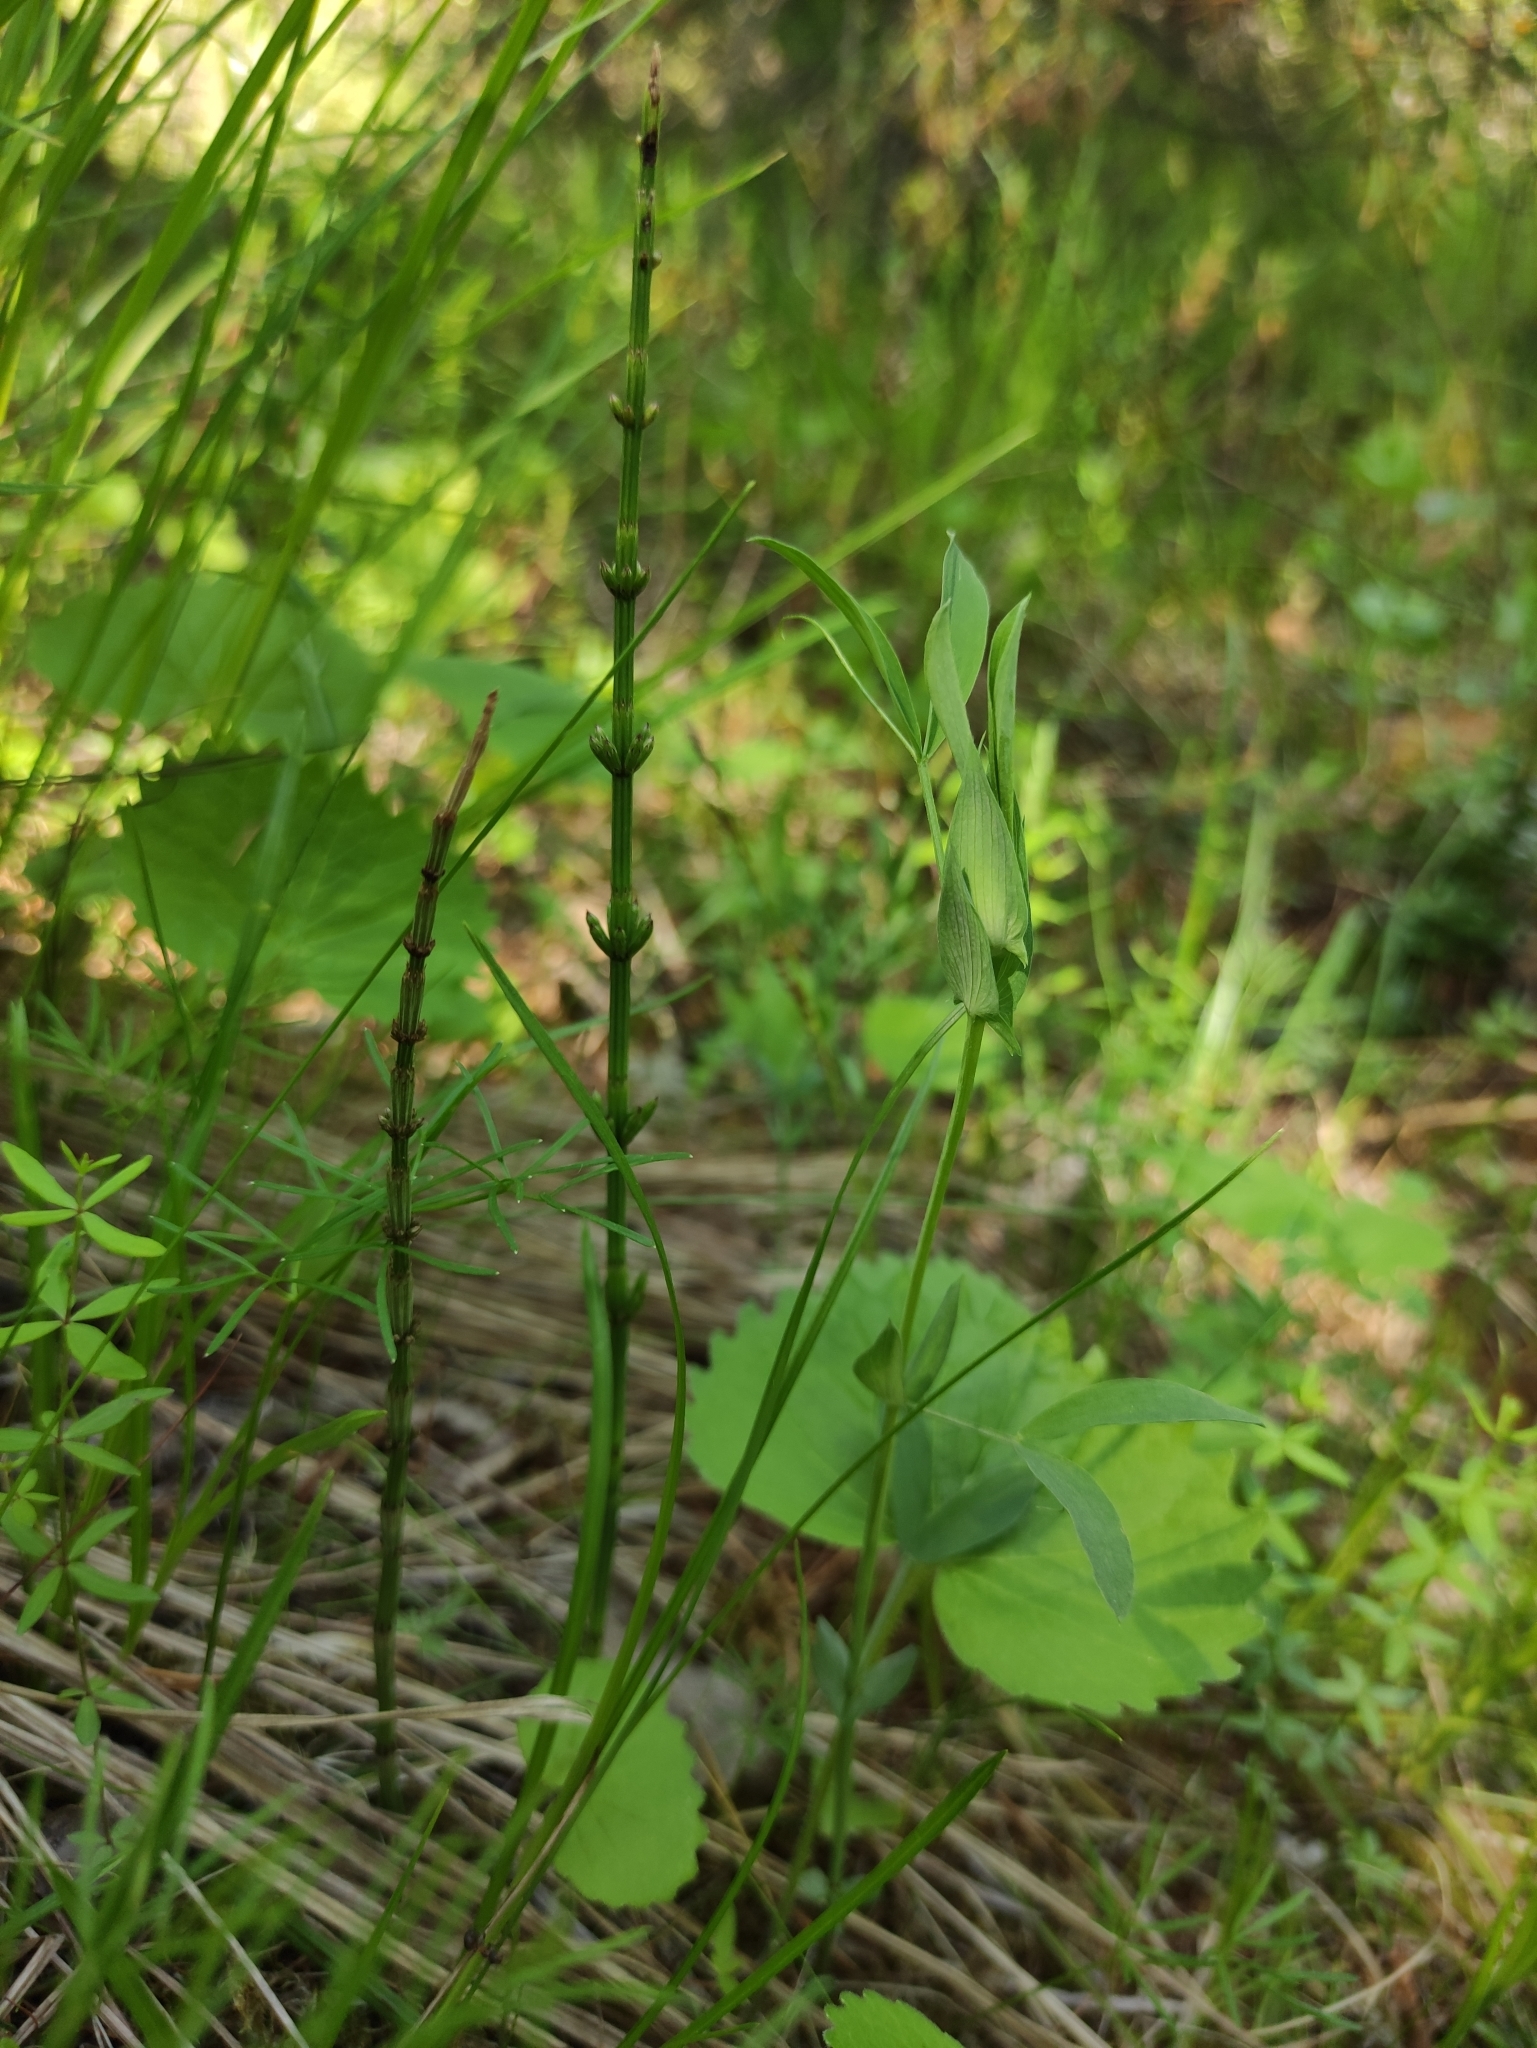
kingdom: Plantae
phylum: Tracheophyta
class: Magnoliopsida
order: Fabales
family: Fabaceae
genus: Lathyrus
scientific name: Lathyrus pratensis
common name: Meadow vetchling
